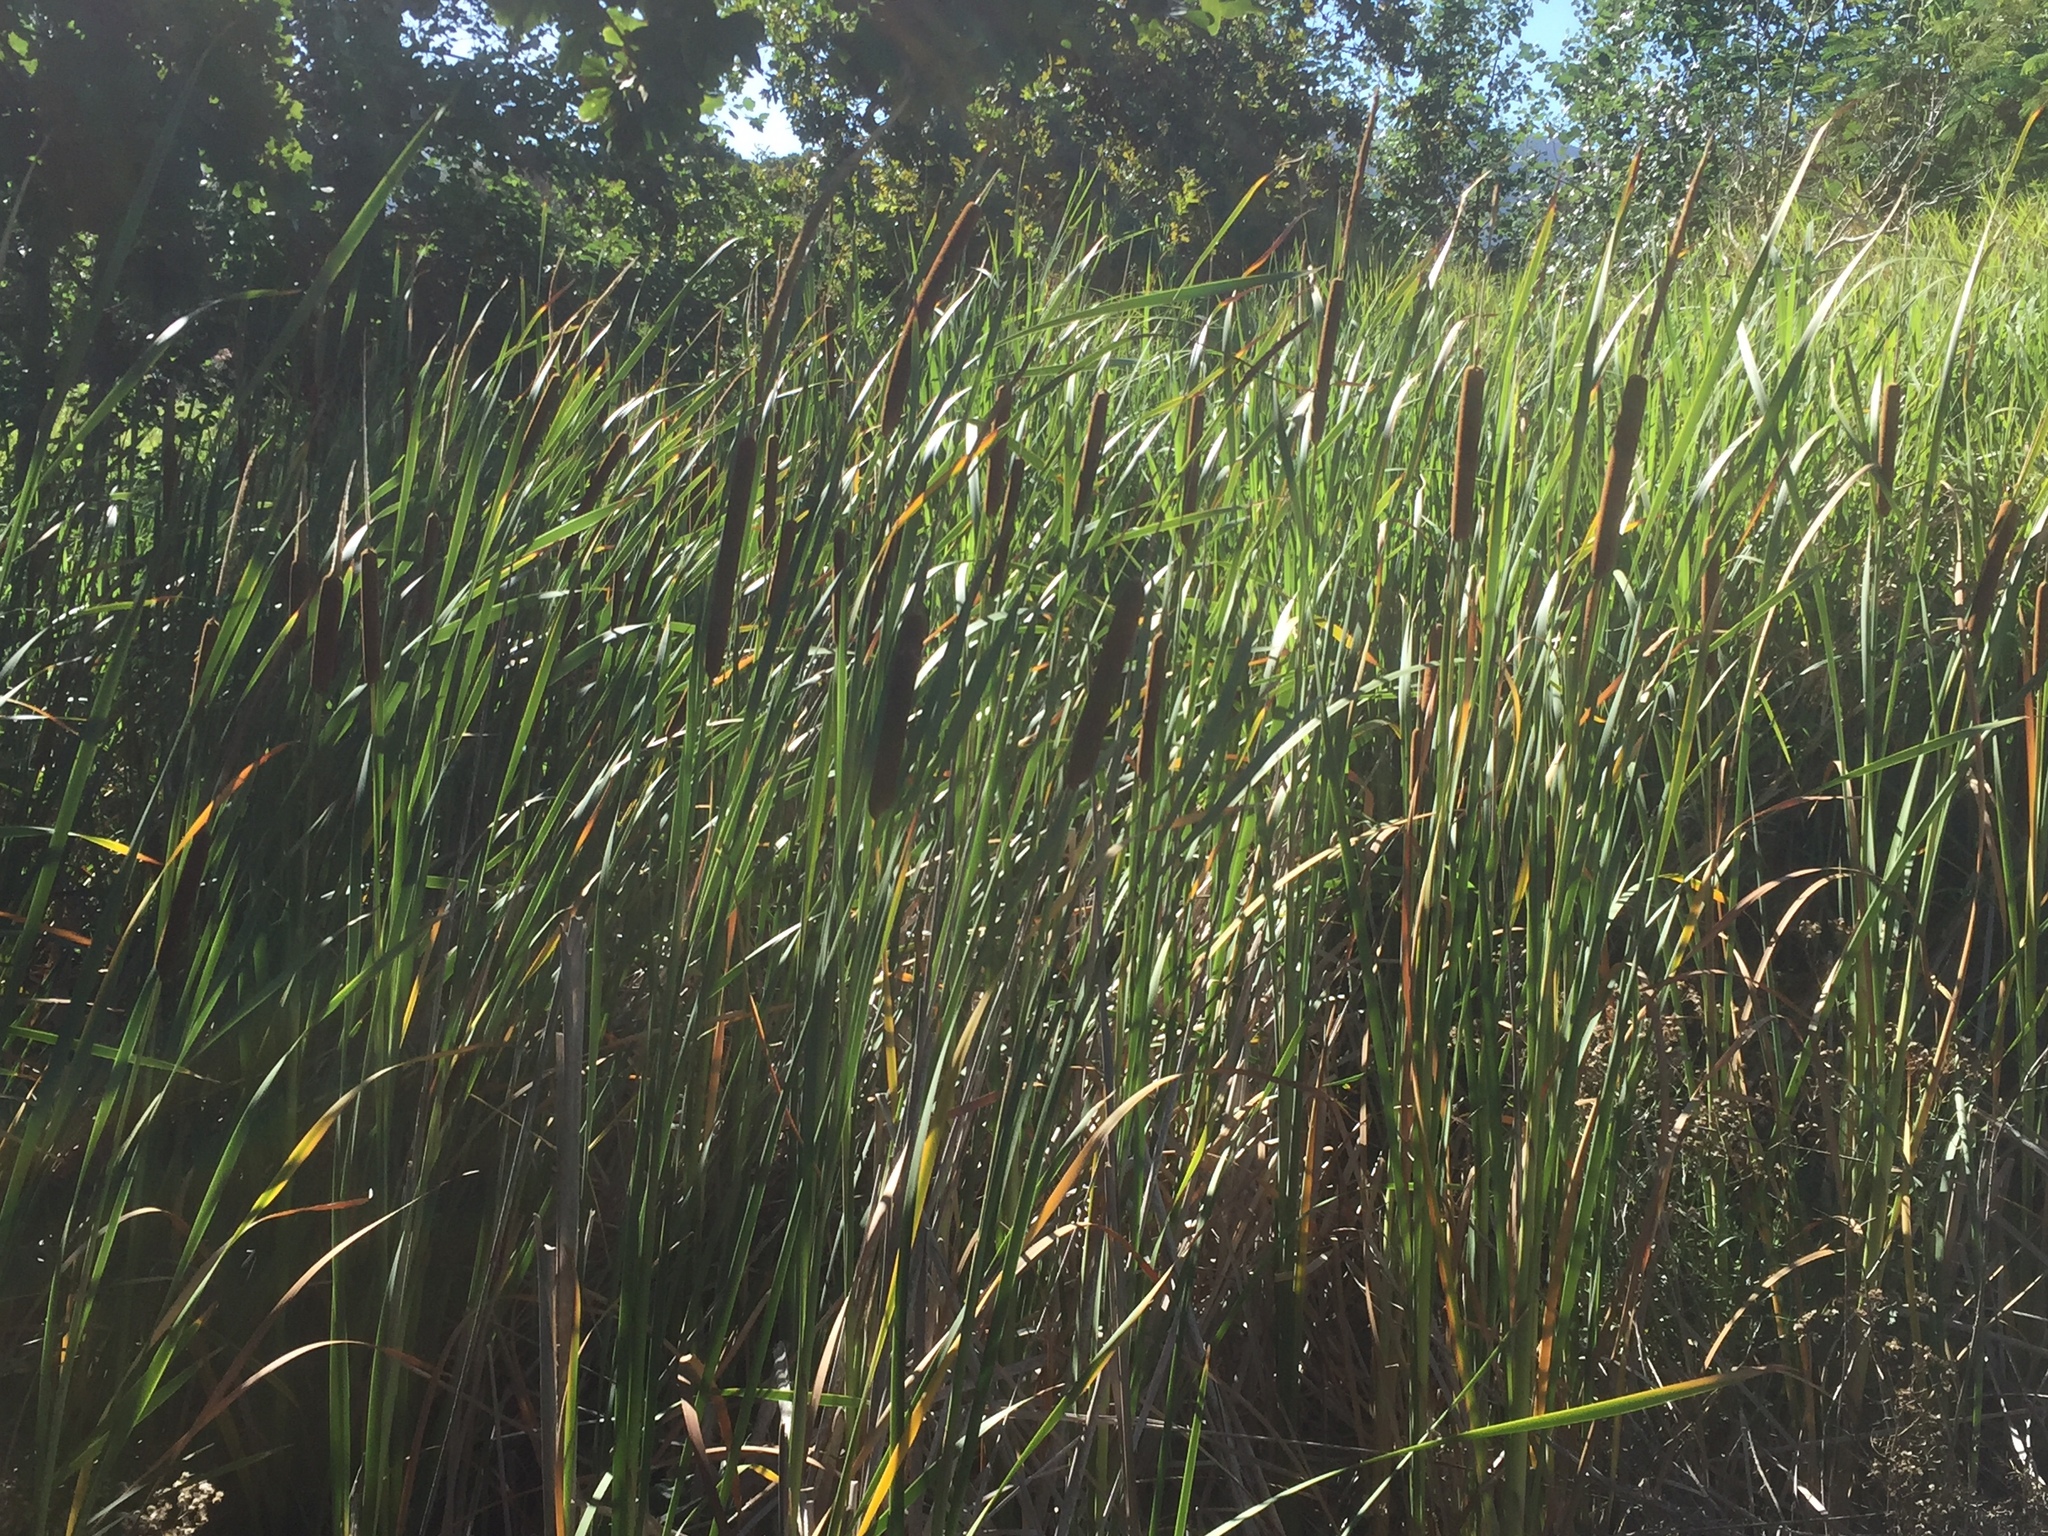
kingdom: Plantae
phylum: Tracheophyta
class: Liliopsida
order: Poales
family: Typhaceae
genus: Typha
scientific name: Typha capensis
